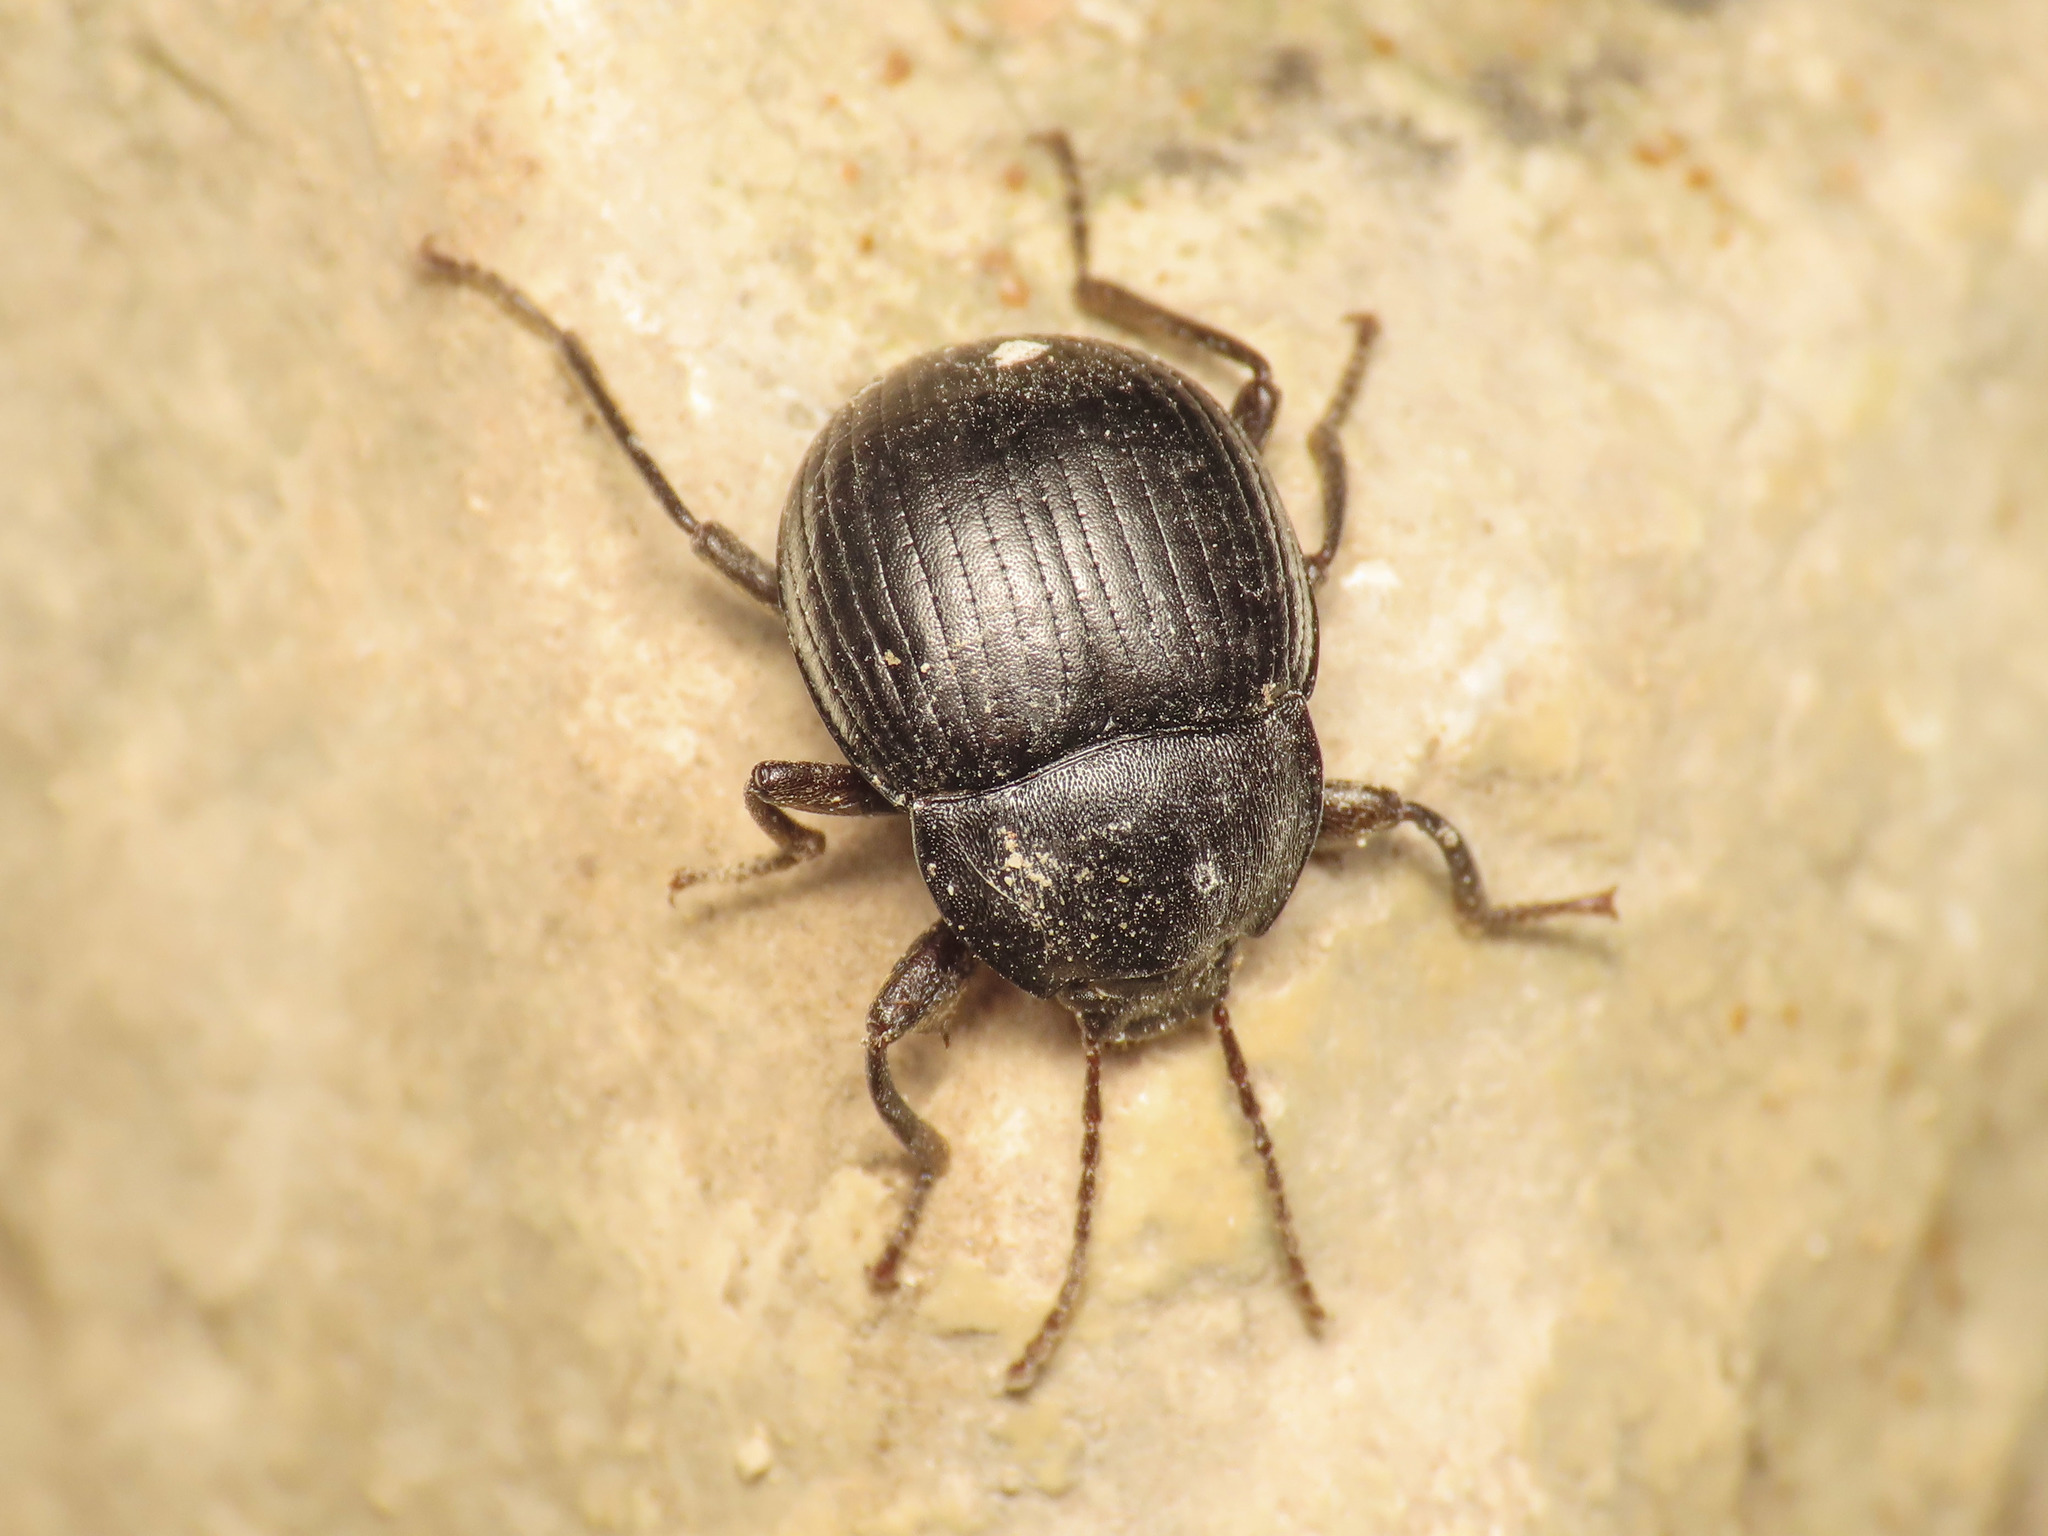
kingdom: Animalia
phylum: Arthropoda
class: Insecta
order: Coleoptera
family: Tenebrionidae
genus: Accanthopus
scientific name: Accanthopus velikensis
